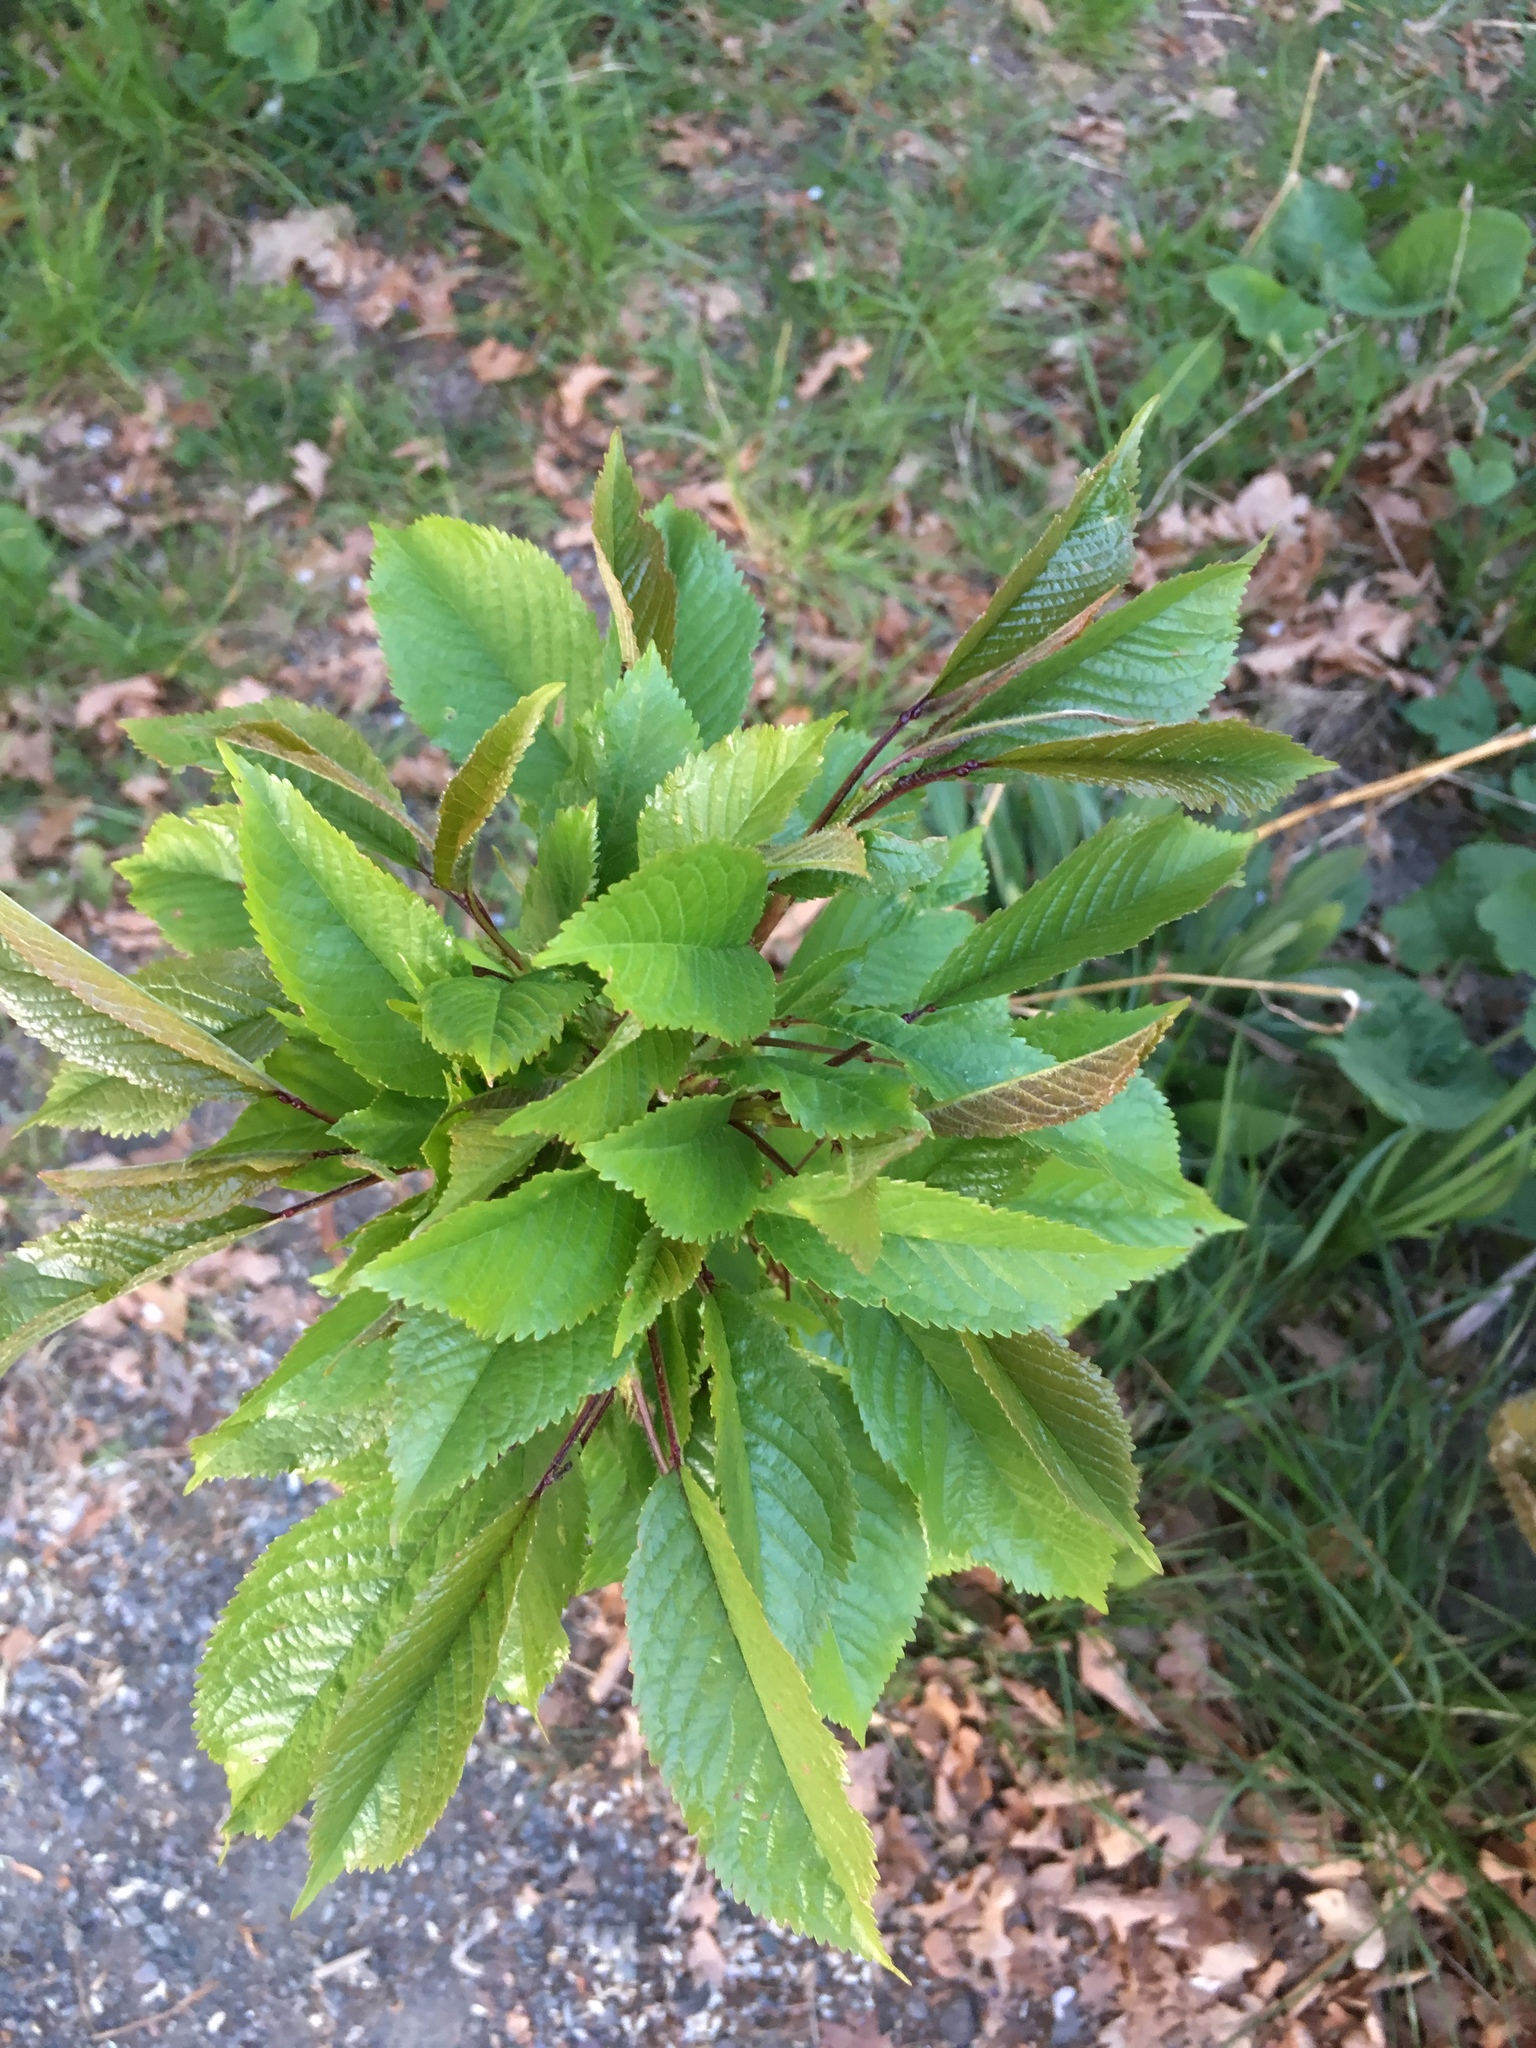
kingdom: Plantae
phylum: Tracheophyta
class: Magnoliopsida
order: Rosales
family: Rosaceae
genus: Prunus
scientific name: Prunus avium
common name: Sweet cherry
